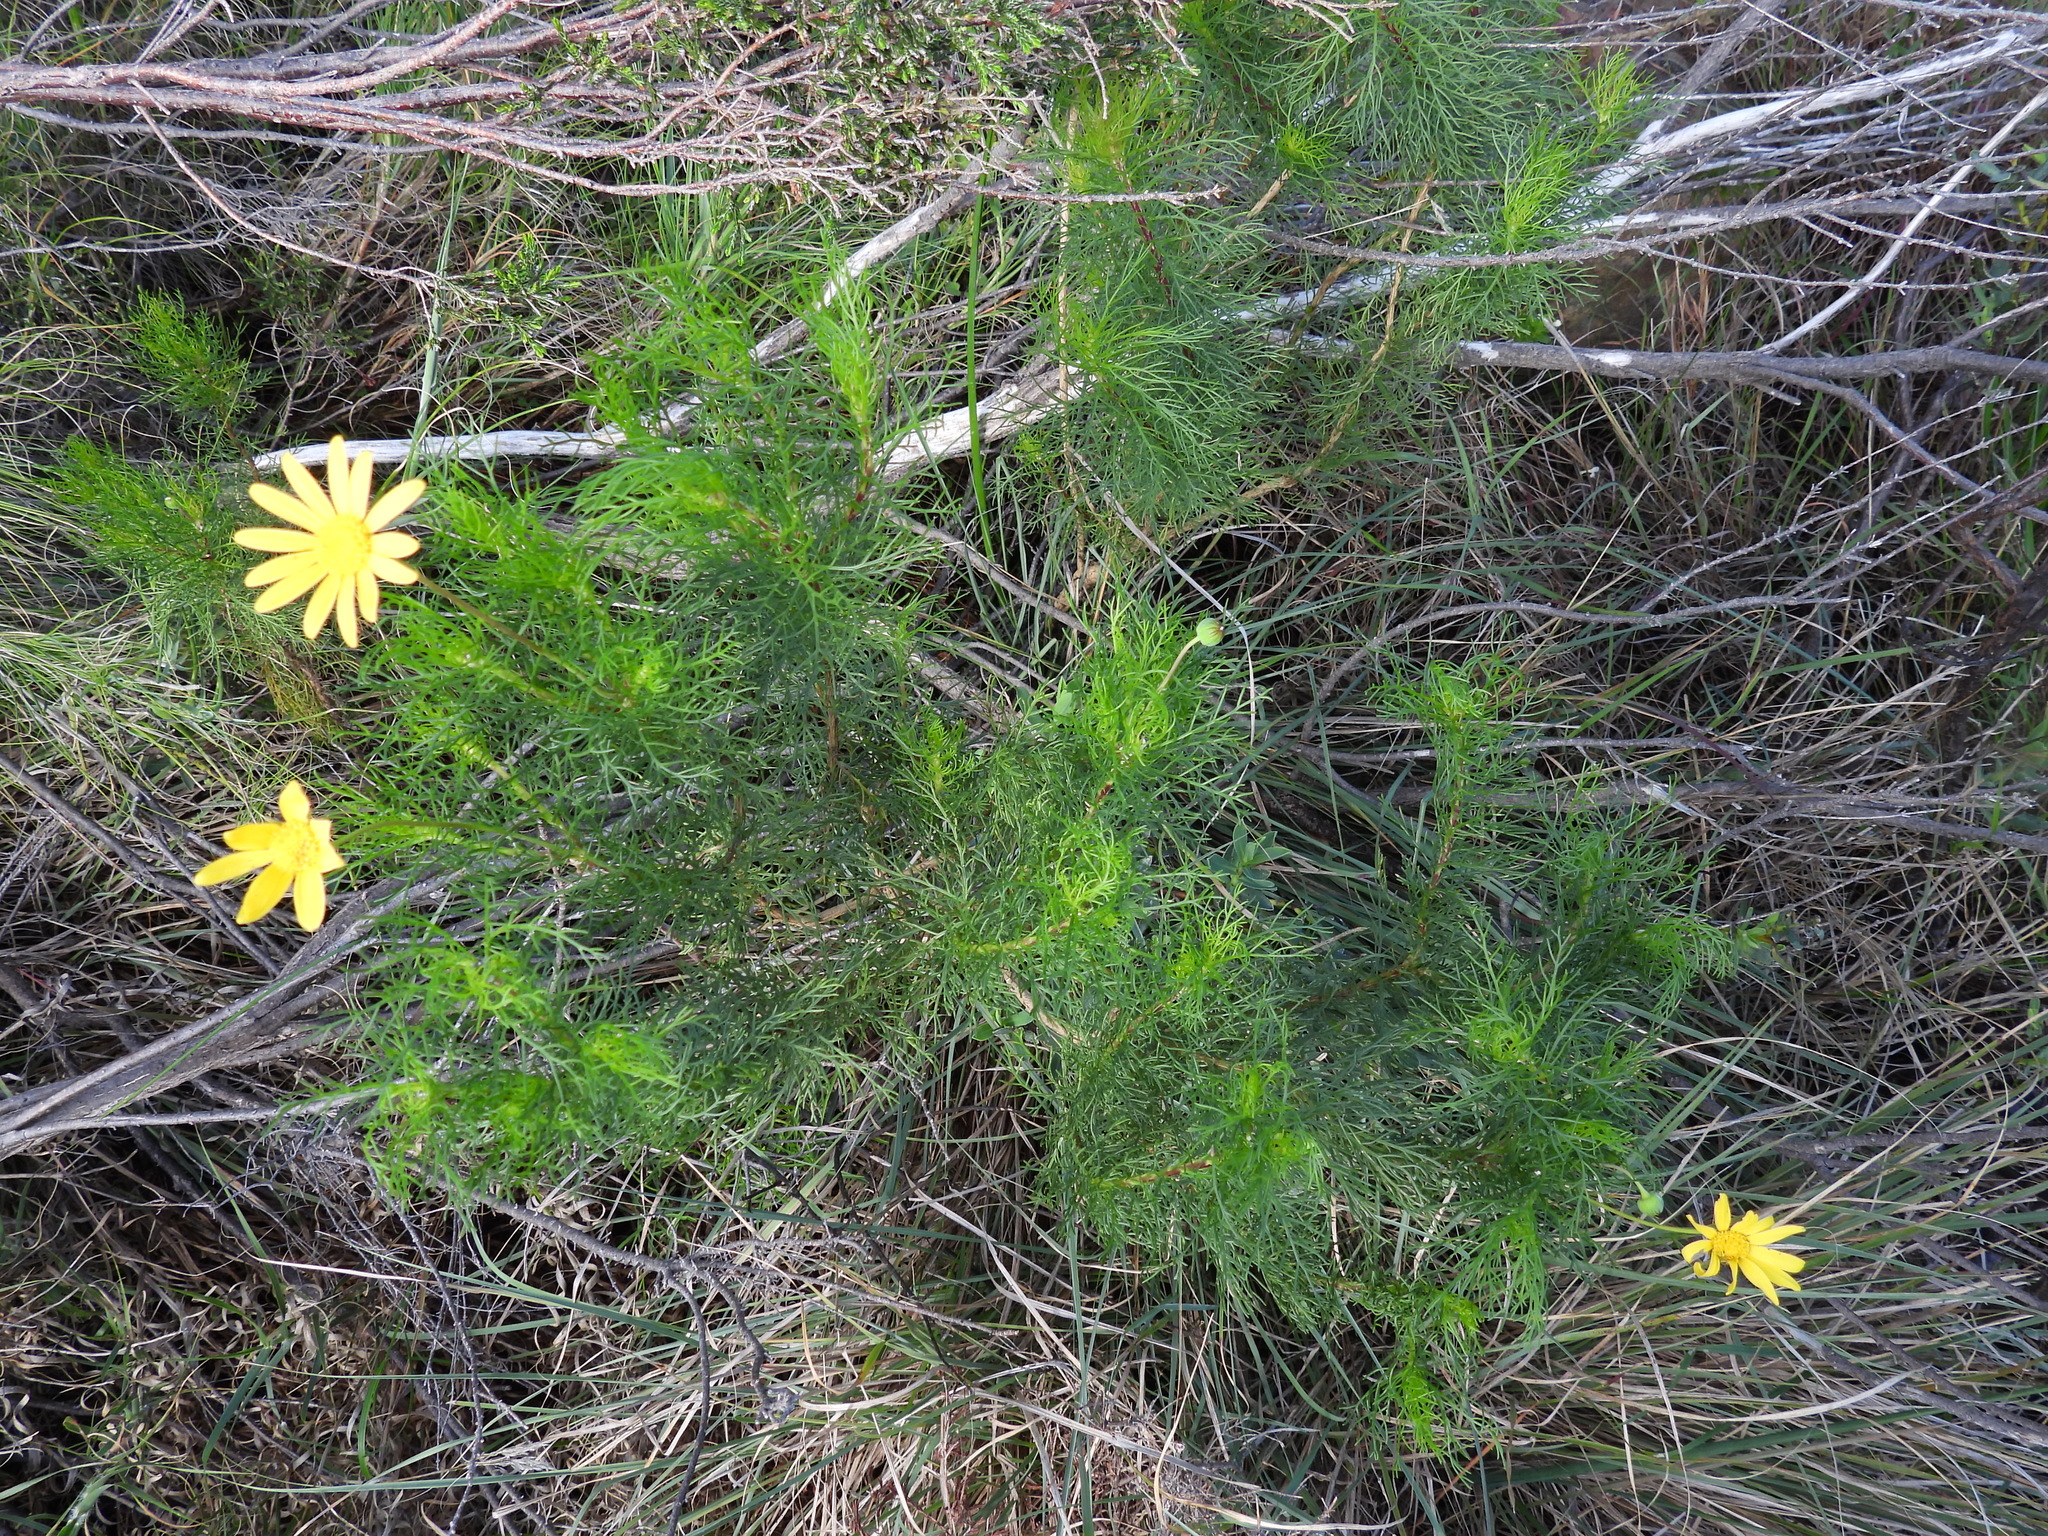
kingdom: Plantae
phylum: Tracheophyta
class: Magnoliopsida
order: Asterales
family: Asteraceae
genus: Euryops
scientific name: Euryops abrotanifolius
